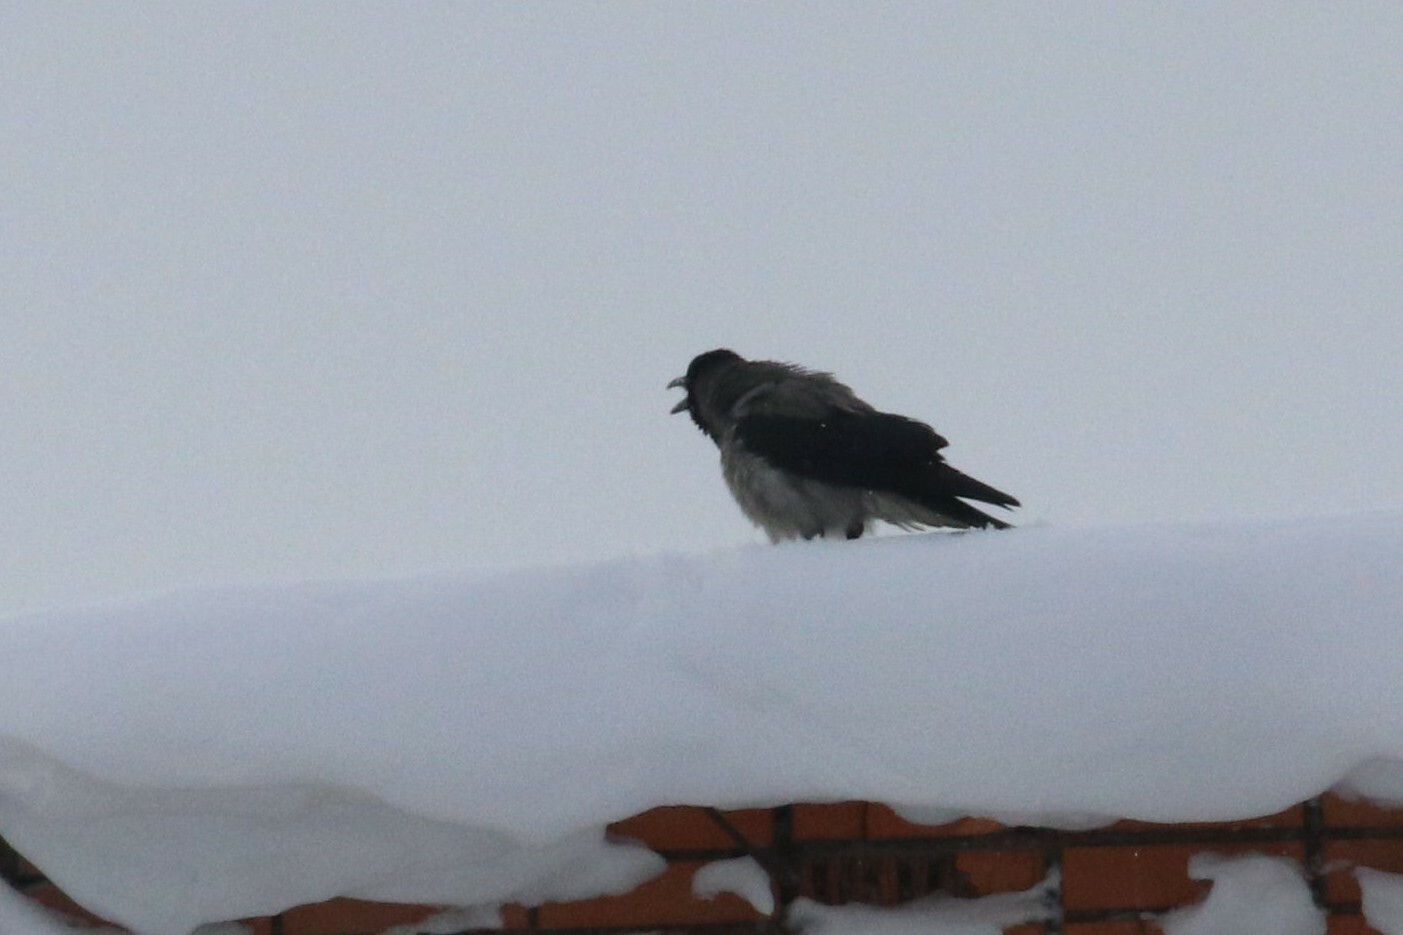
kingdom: Animalia
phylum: Chordata
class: Aves
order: Passeriformes
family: Corvidae
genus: Corvus
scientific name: Corvus cornix
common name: Hooded crow
